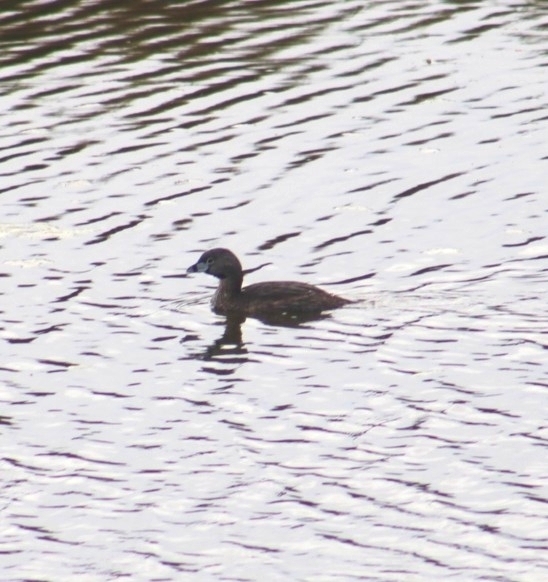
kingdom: Animalia
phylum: Chordata
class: Aves
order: Podicipediformes
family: Podicipedidae
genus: Podilymbus
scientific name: Podilymbus podiceps
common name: Pied-billed grebe
